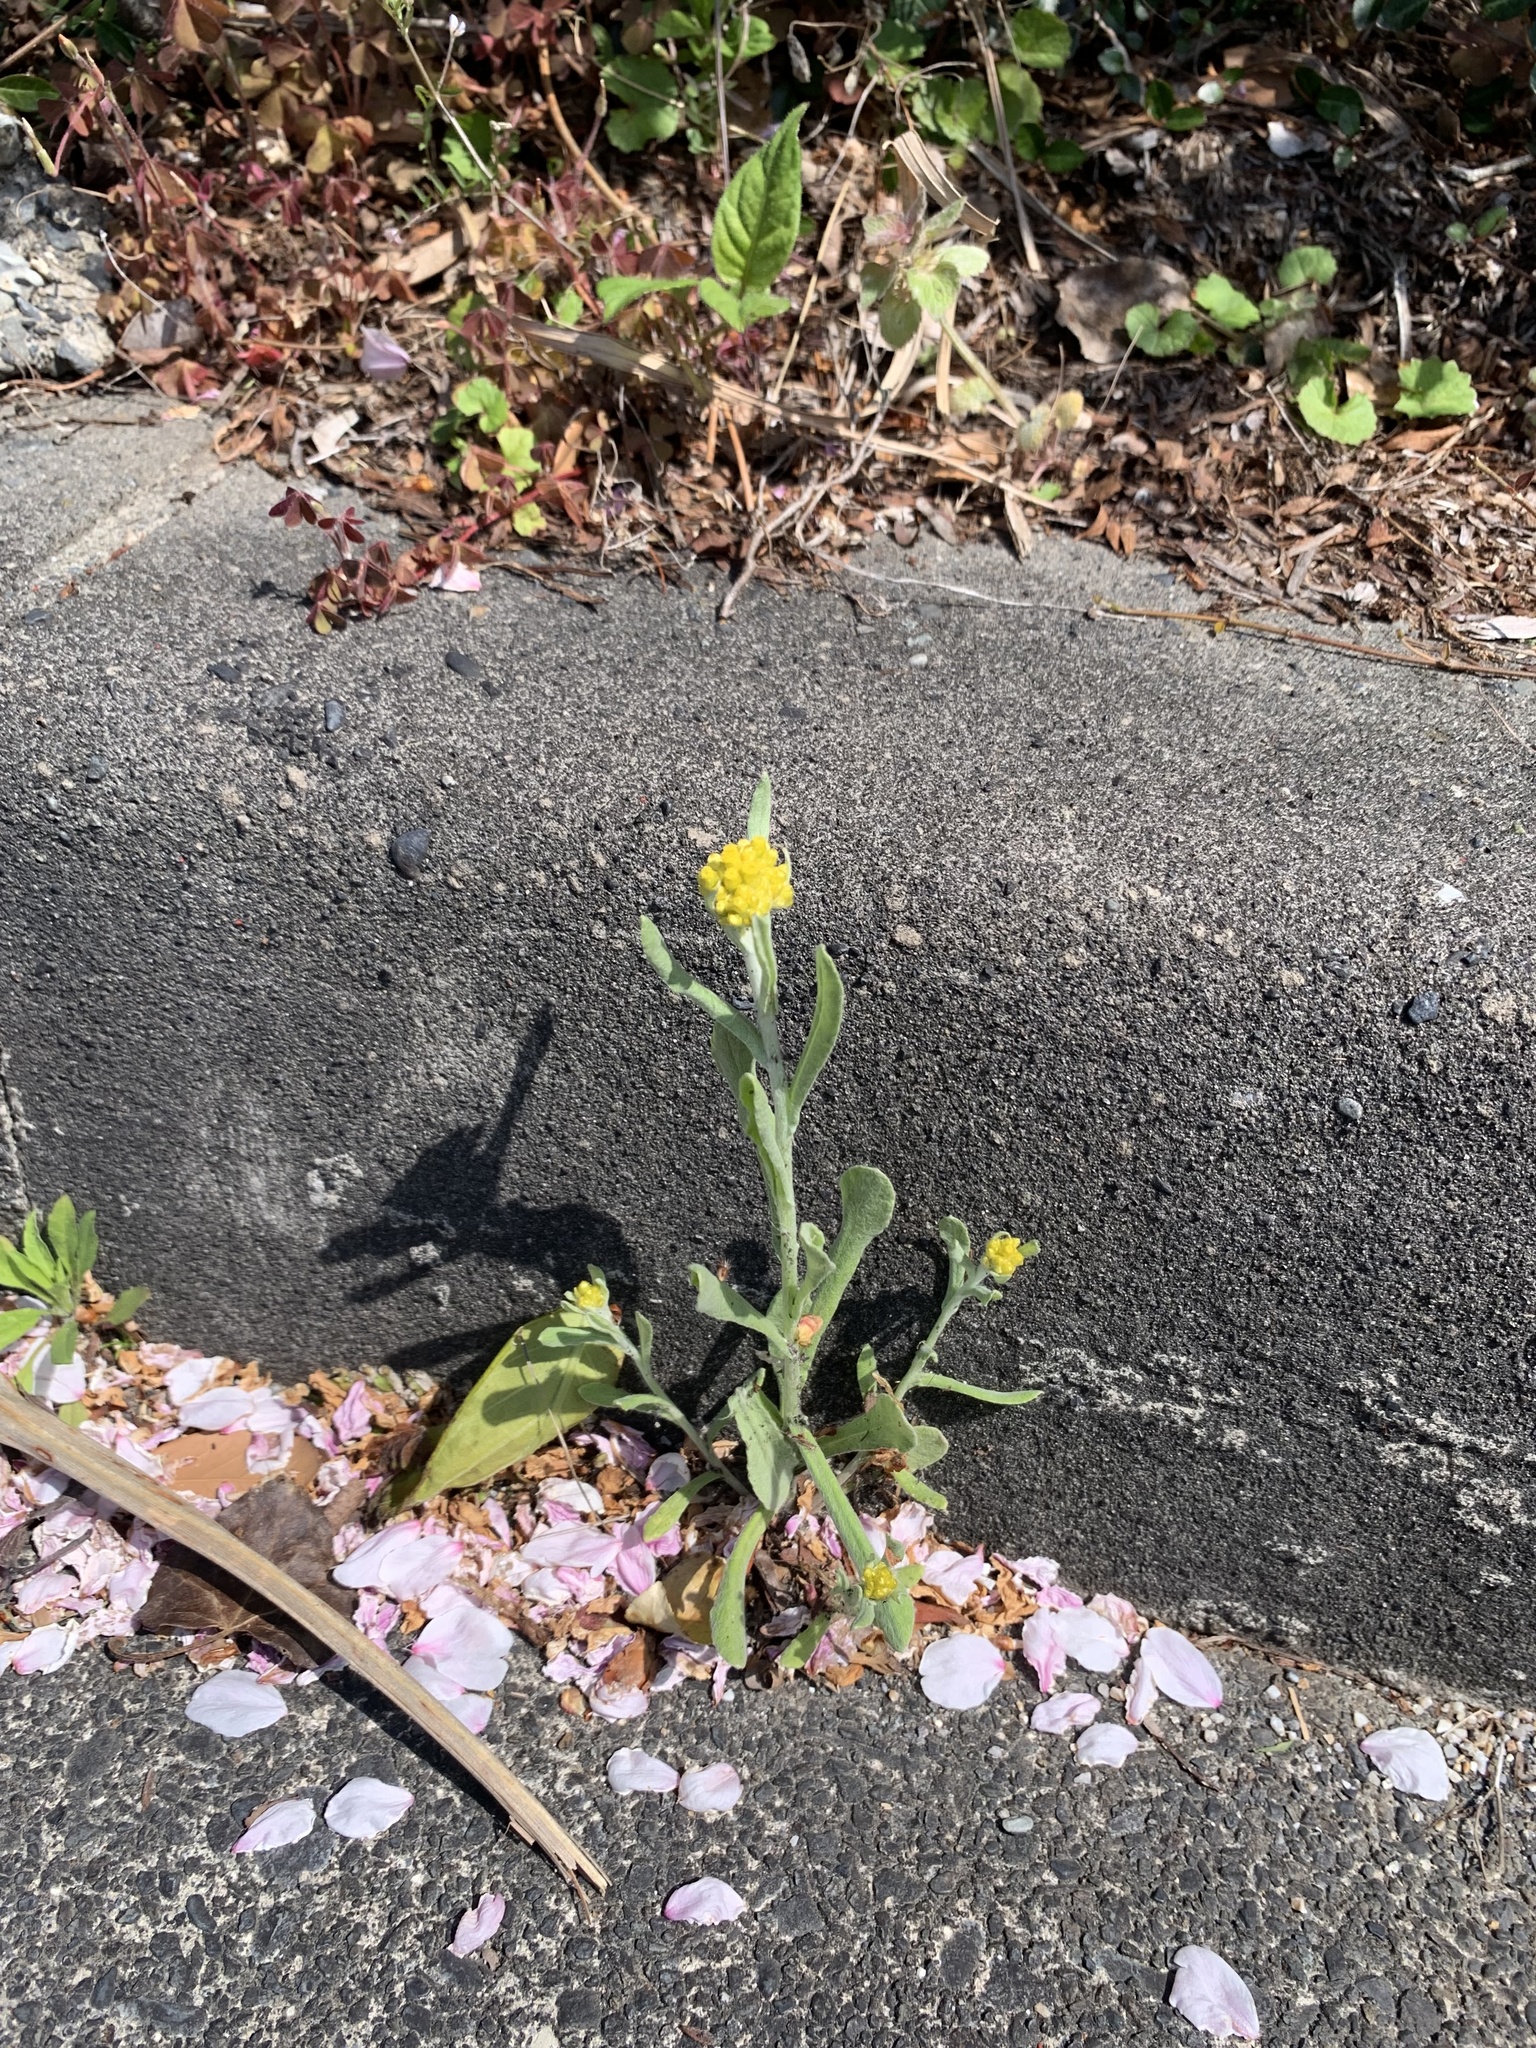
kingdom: Plantae
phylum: Tracheophyta
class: Magnoliopsida
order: Asterales
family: Asteraceae
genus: Pseudognaphalium
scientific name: Pseudognaphalium affine
